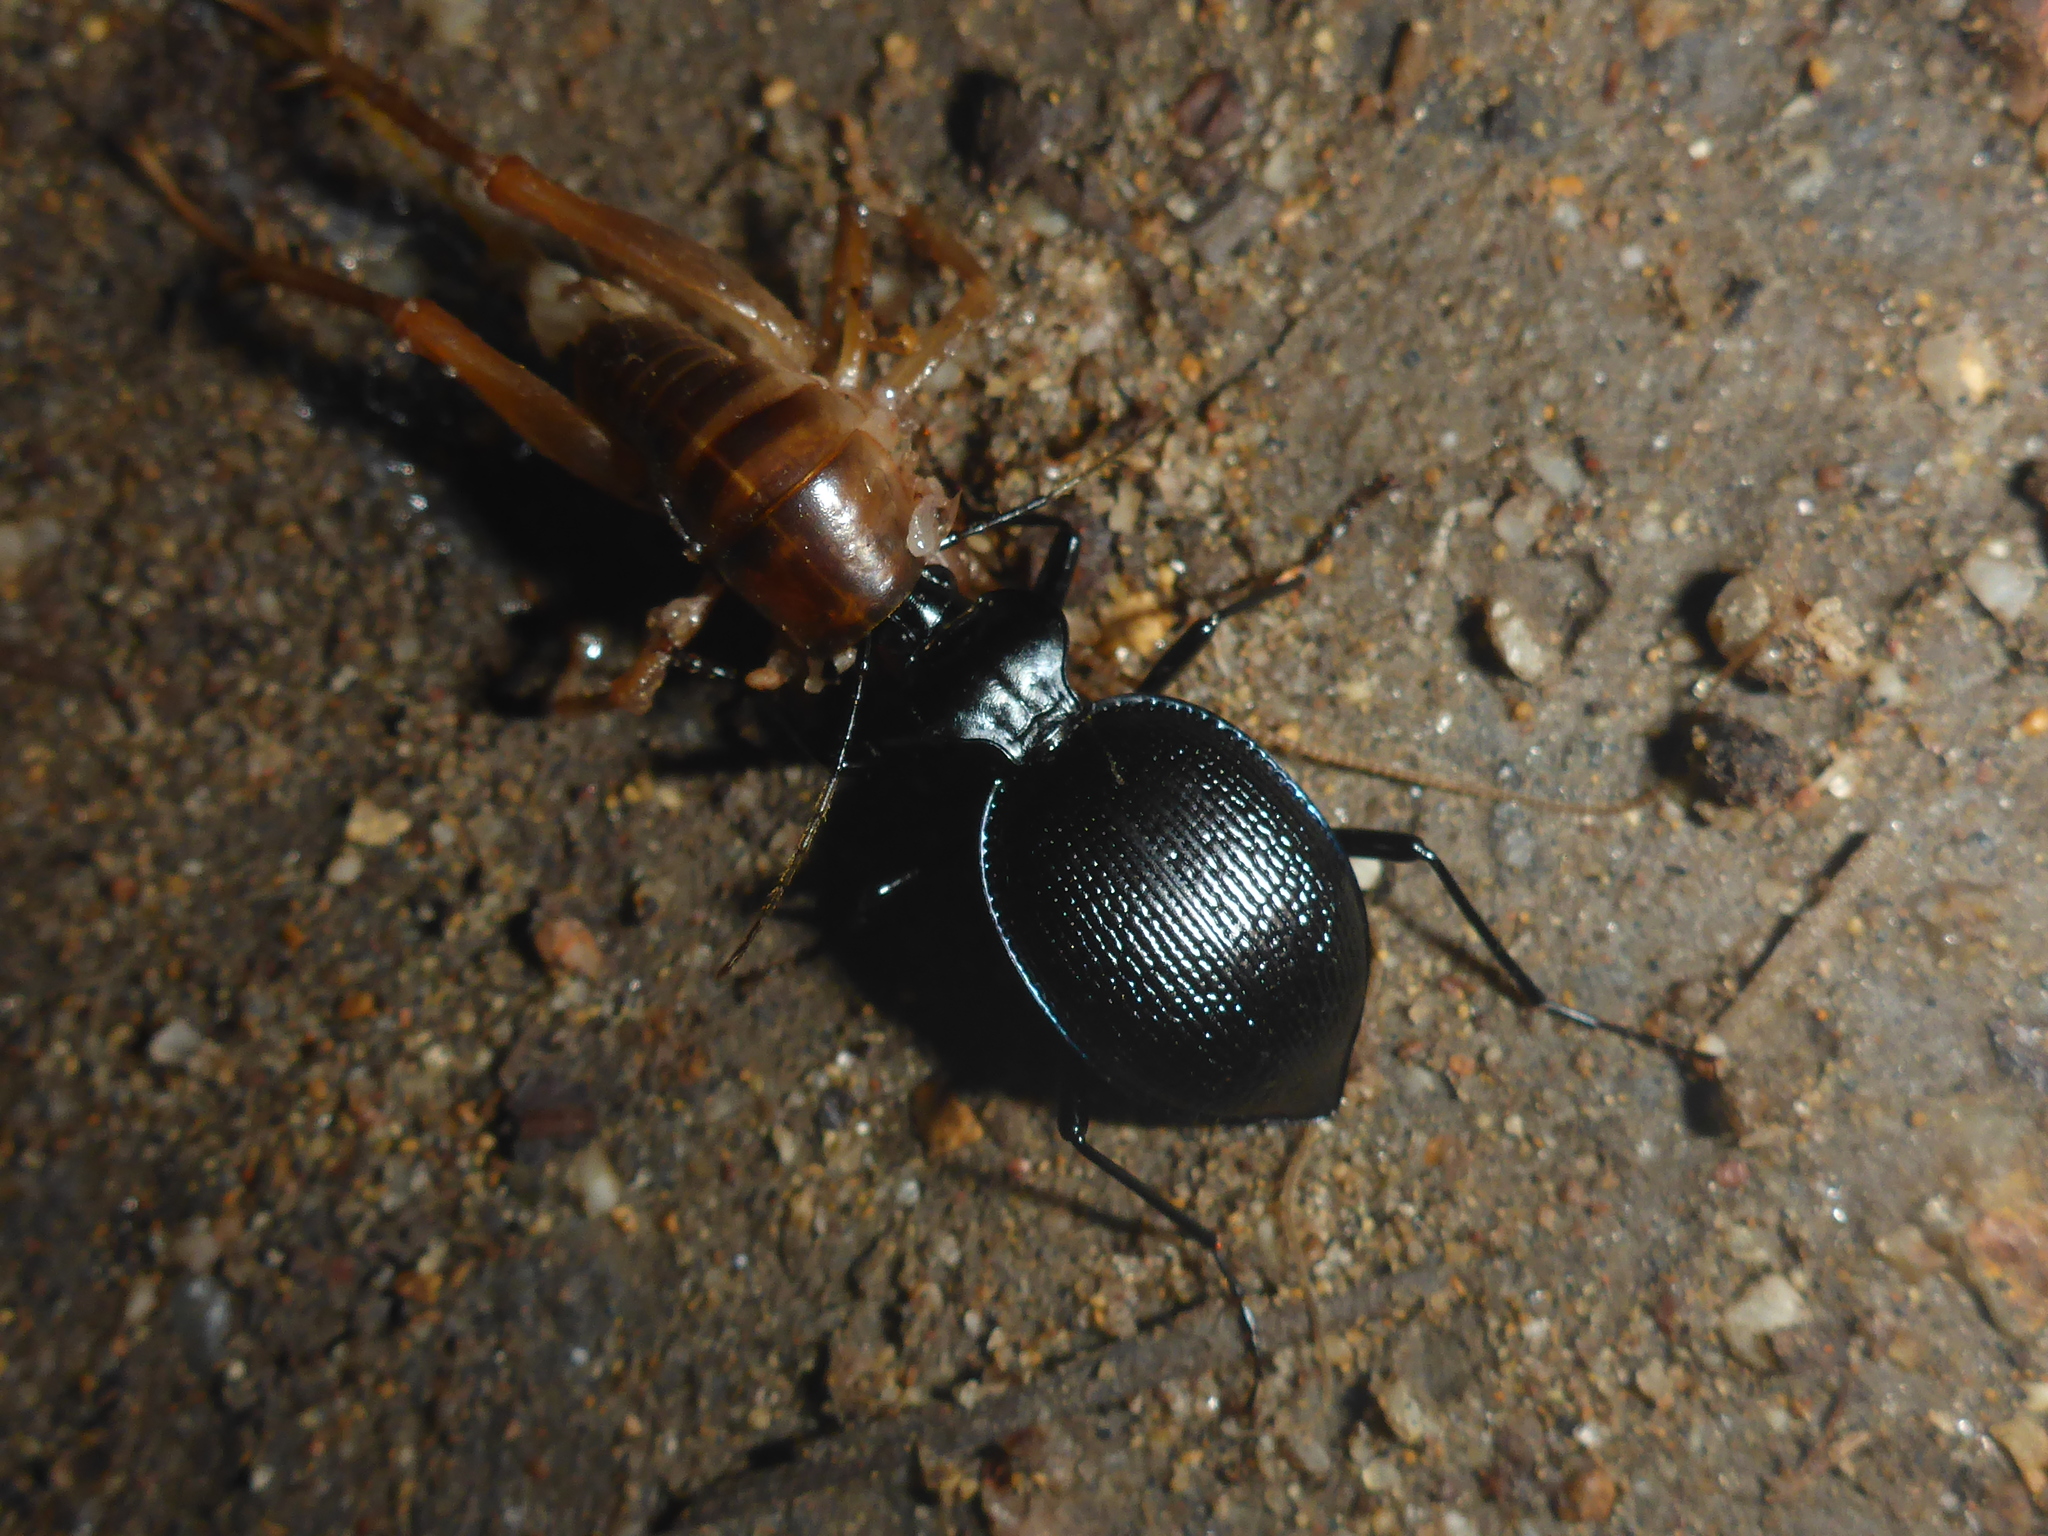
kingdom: Animalia
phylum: Arthropoda
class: Insecta
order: Coleoptera
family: Carabidae
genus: Scaphinotus
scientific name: Scaphinotus interruptus
